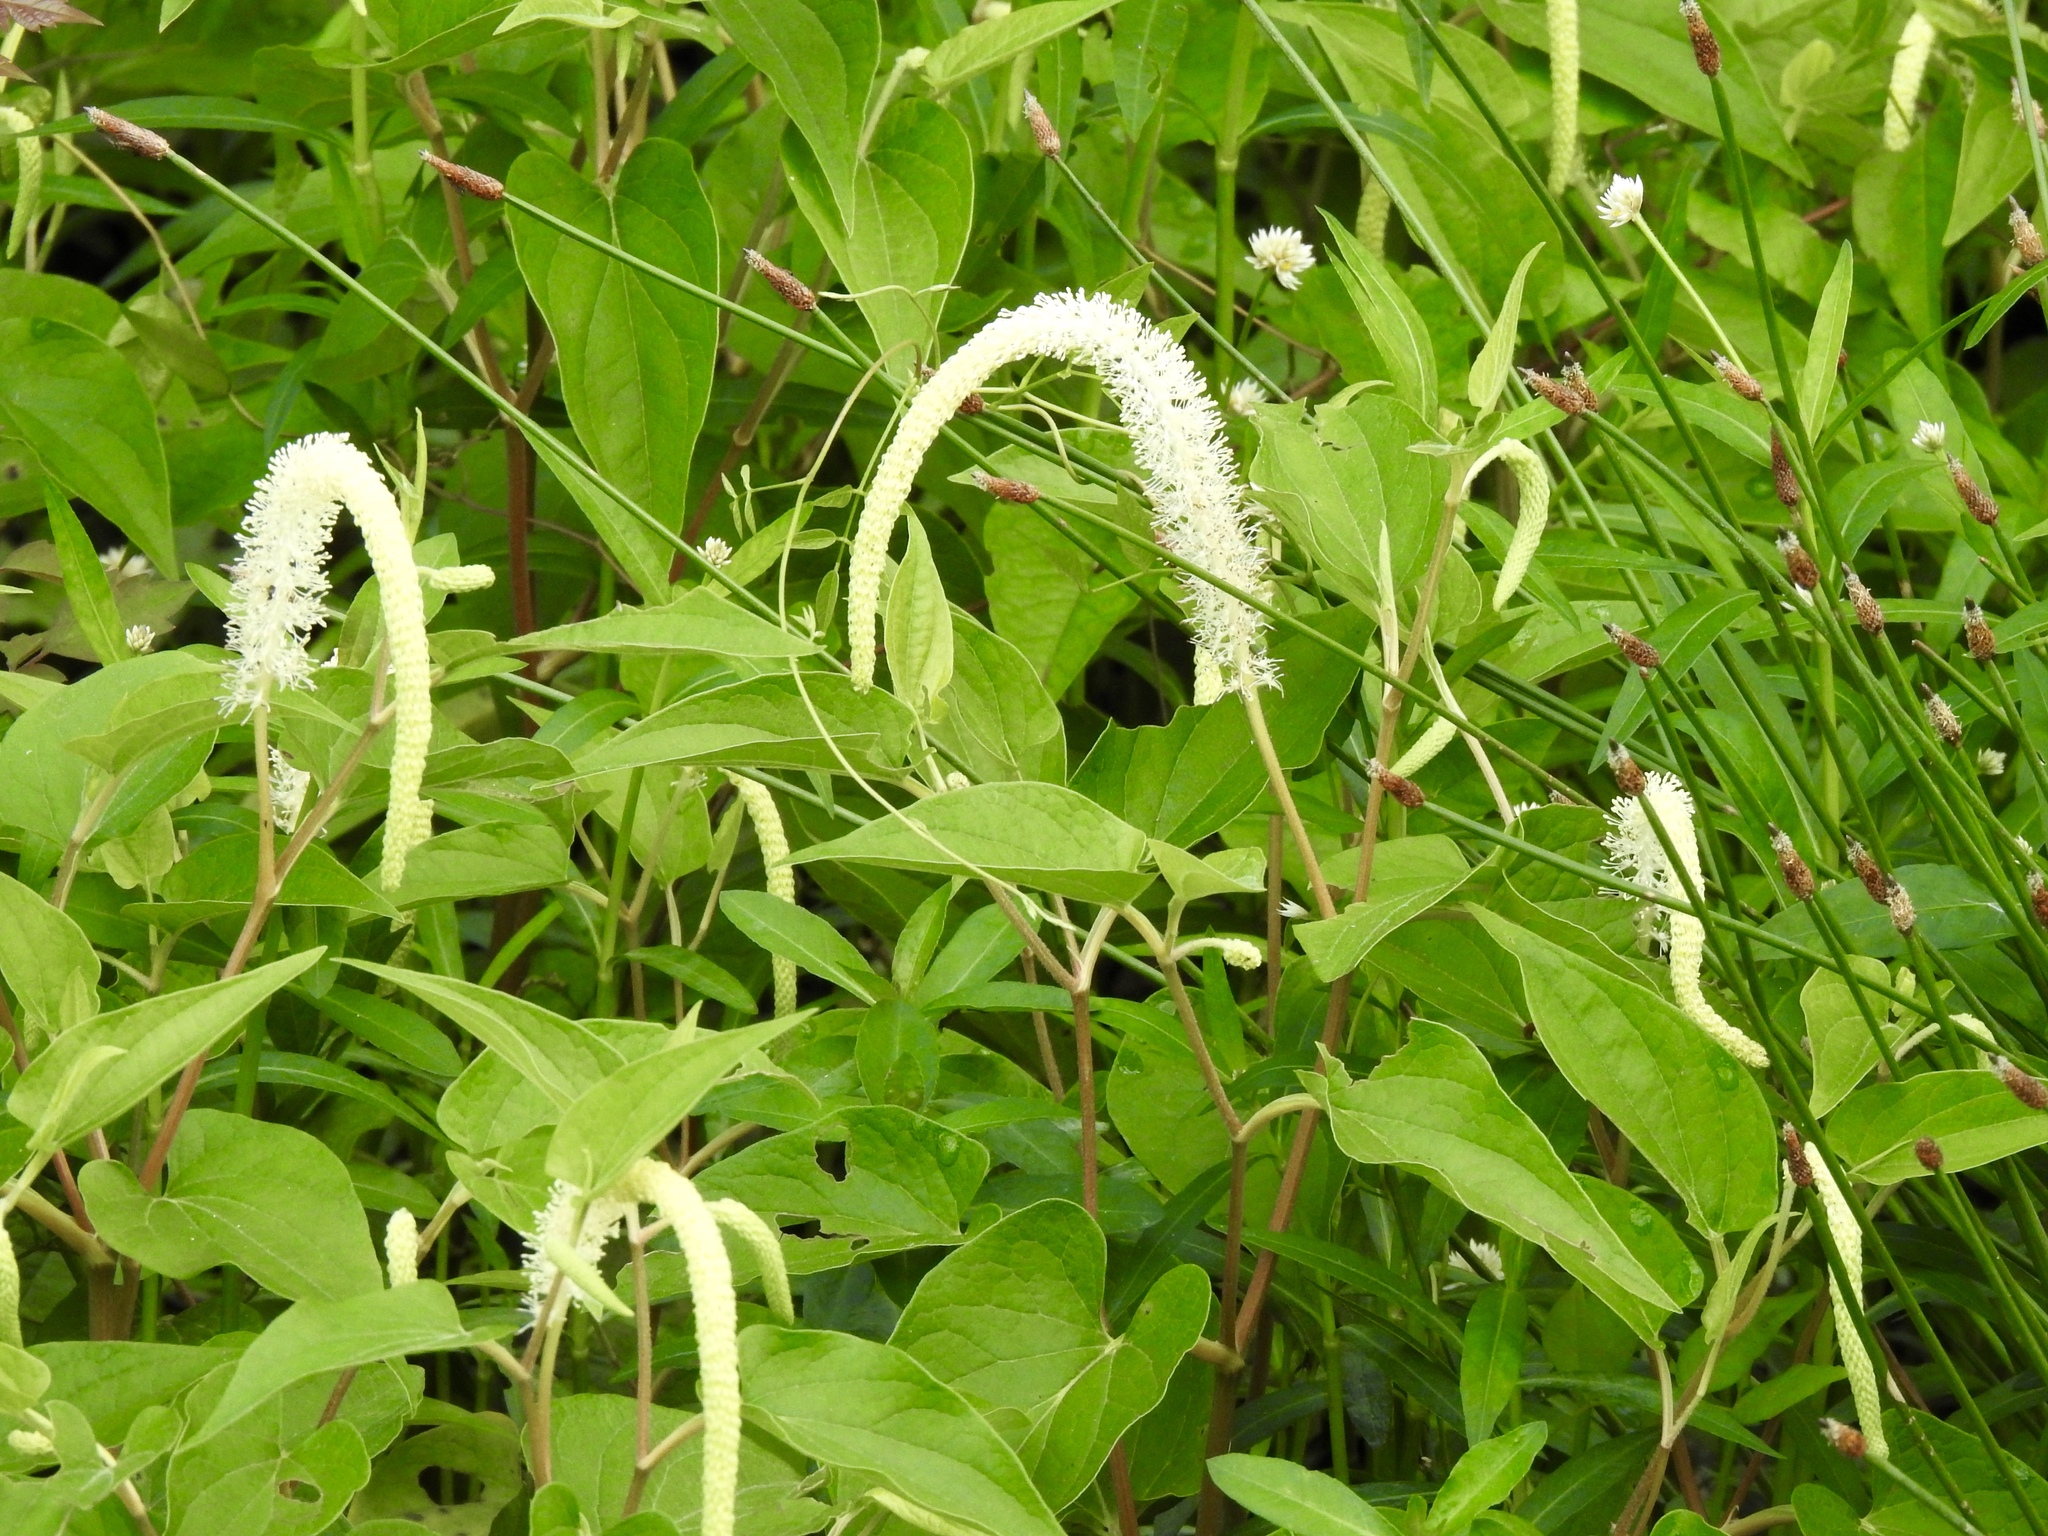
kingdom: Plantae
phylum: Tracheophyta
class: Magnoliopsida
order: Piperales
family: Saururaceae
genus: Saururus
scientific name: Saururus cernuus
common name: Lizard's-tail
